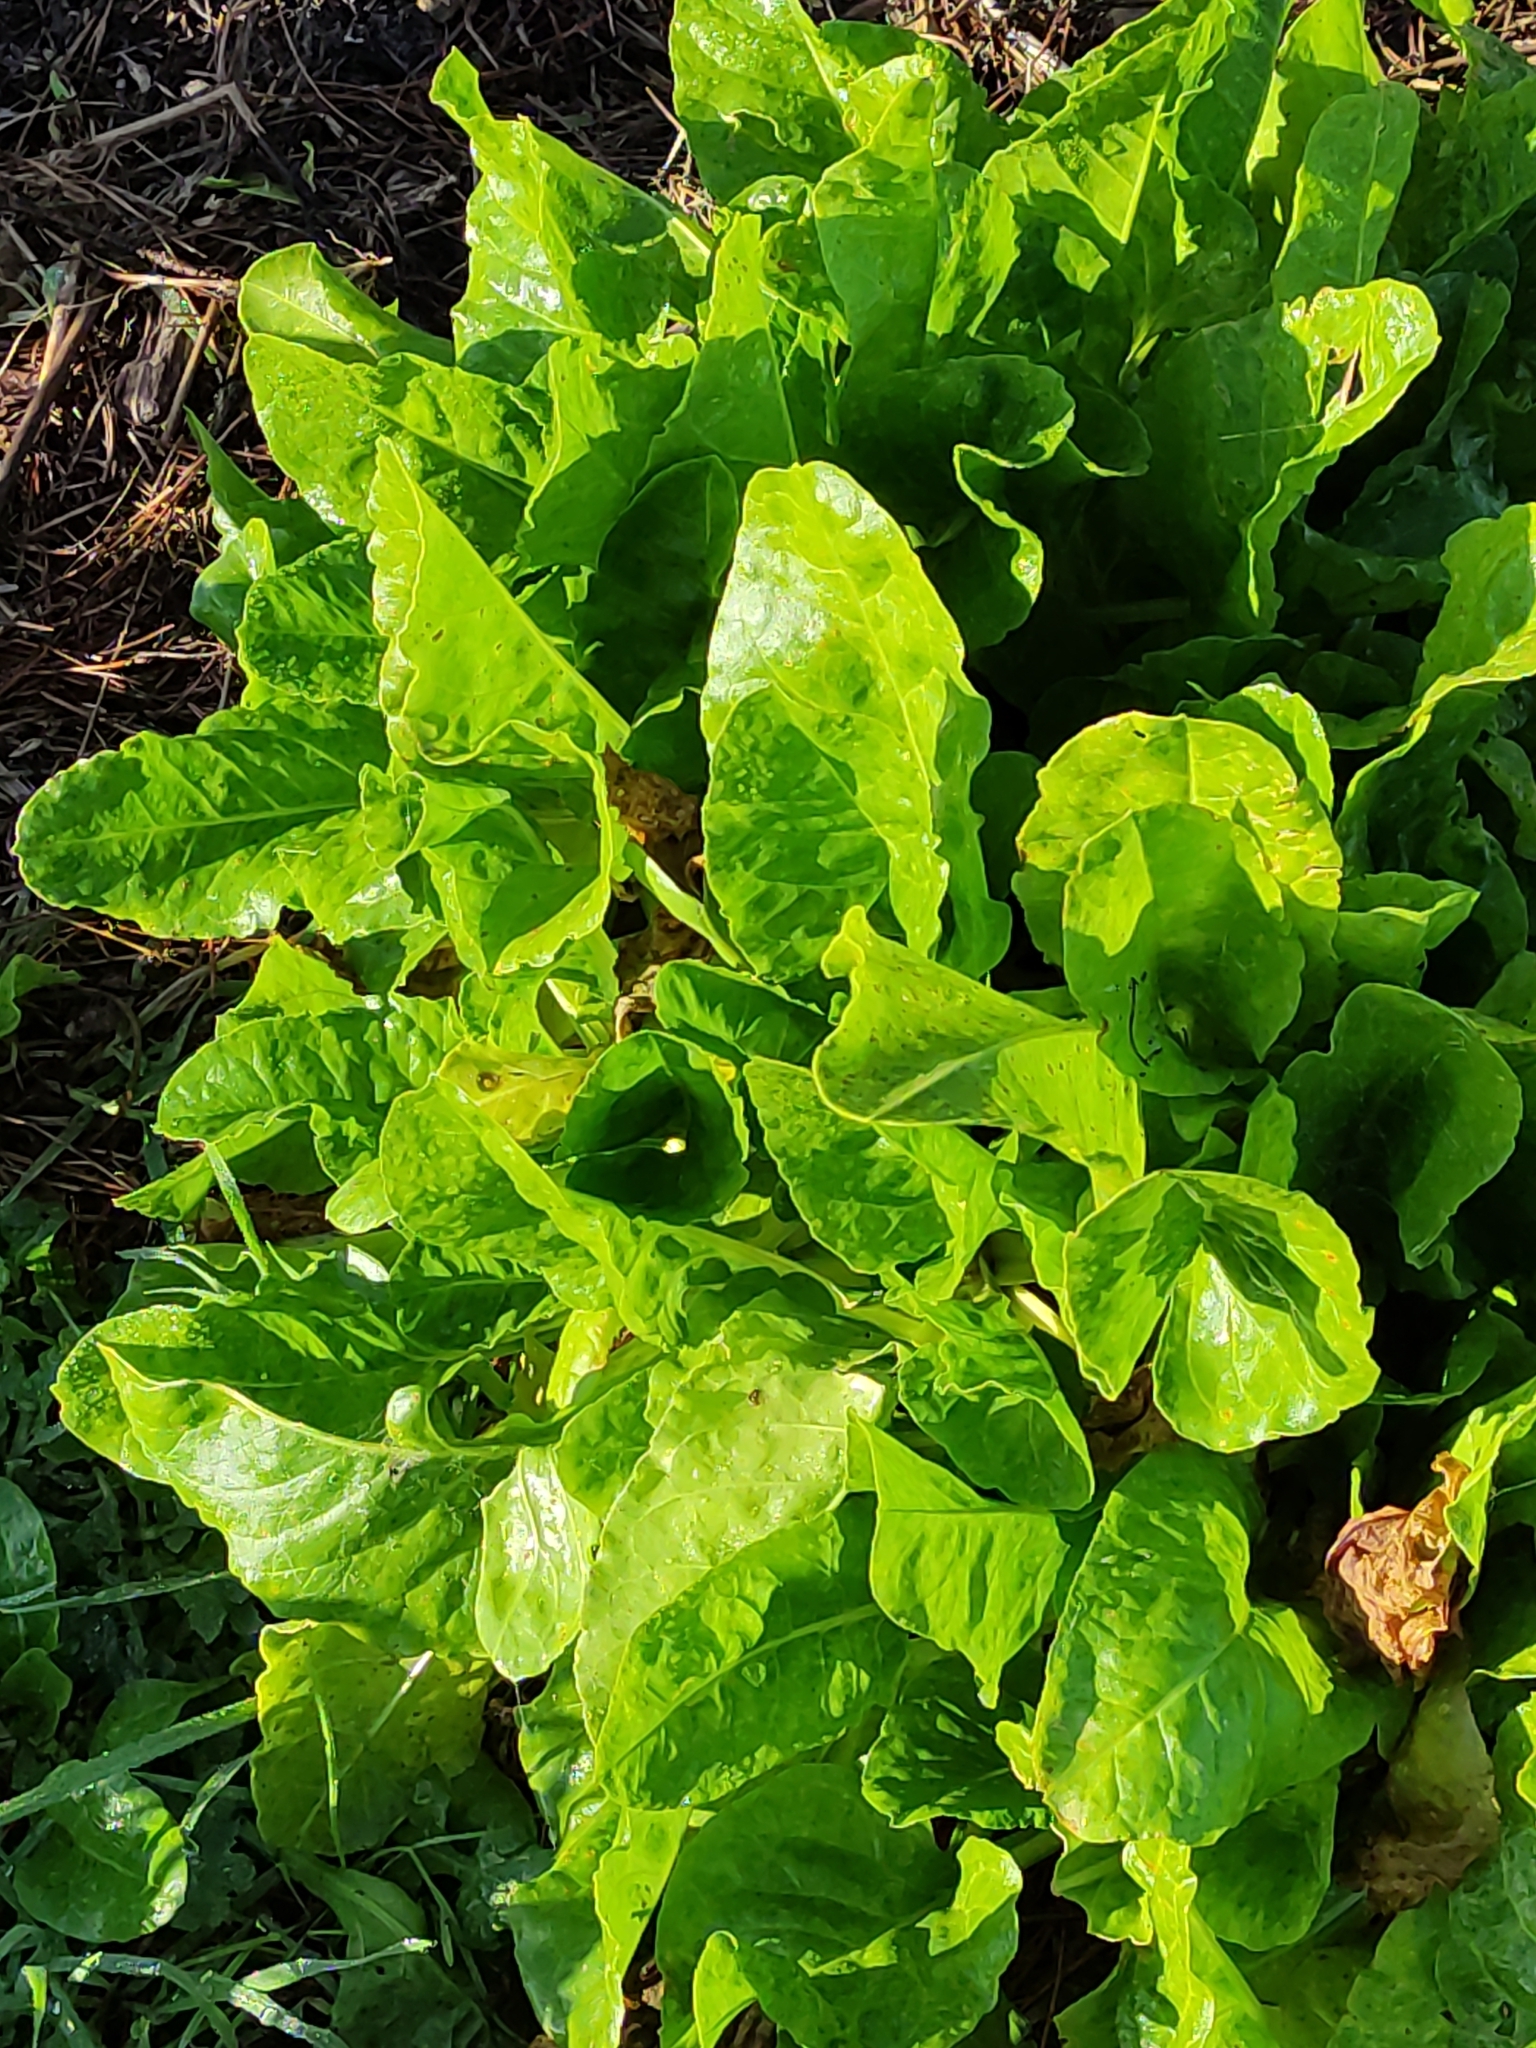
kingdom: Plantae
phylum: Tracheophyta
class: Magnoliopsida
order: Caryophyllales
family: Amaranthaceae
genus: Beta
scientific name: Beta vulgaris
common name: Beet
